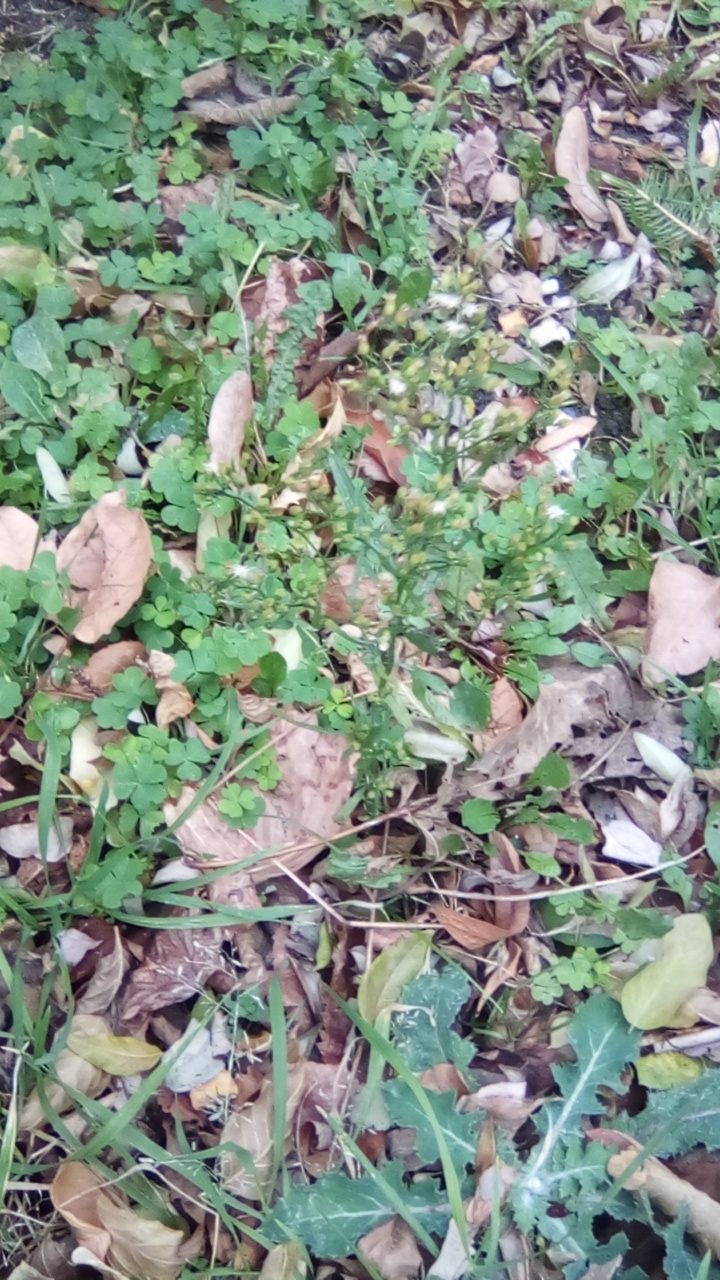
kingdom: Plantae
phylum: Tracheophyta
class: Magnoliopsida
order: Asterales
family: Asteraceae
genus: Erigeron
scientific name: Erigeron canadensis
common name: Canadian fleabane
